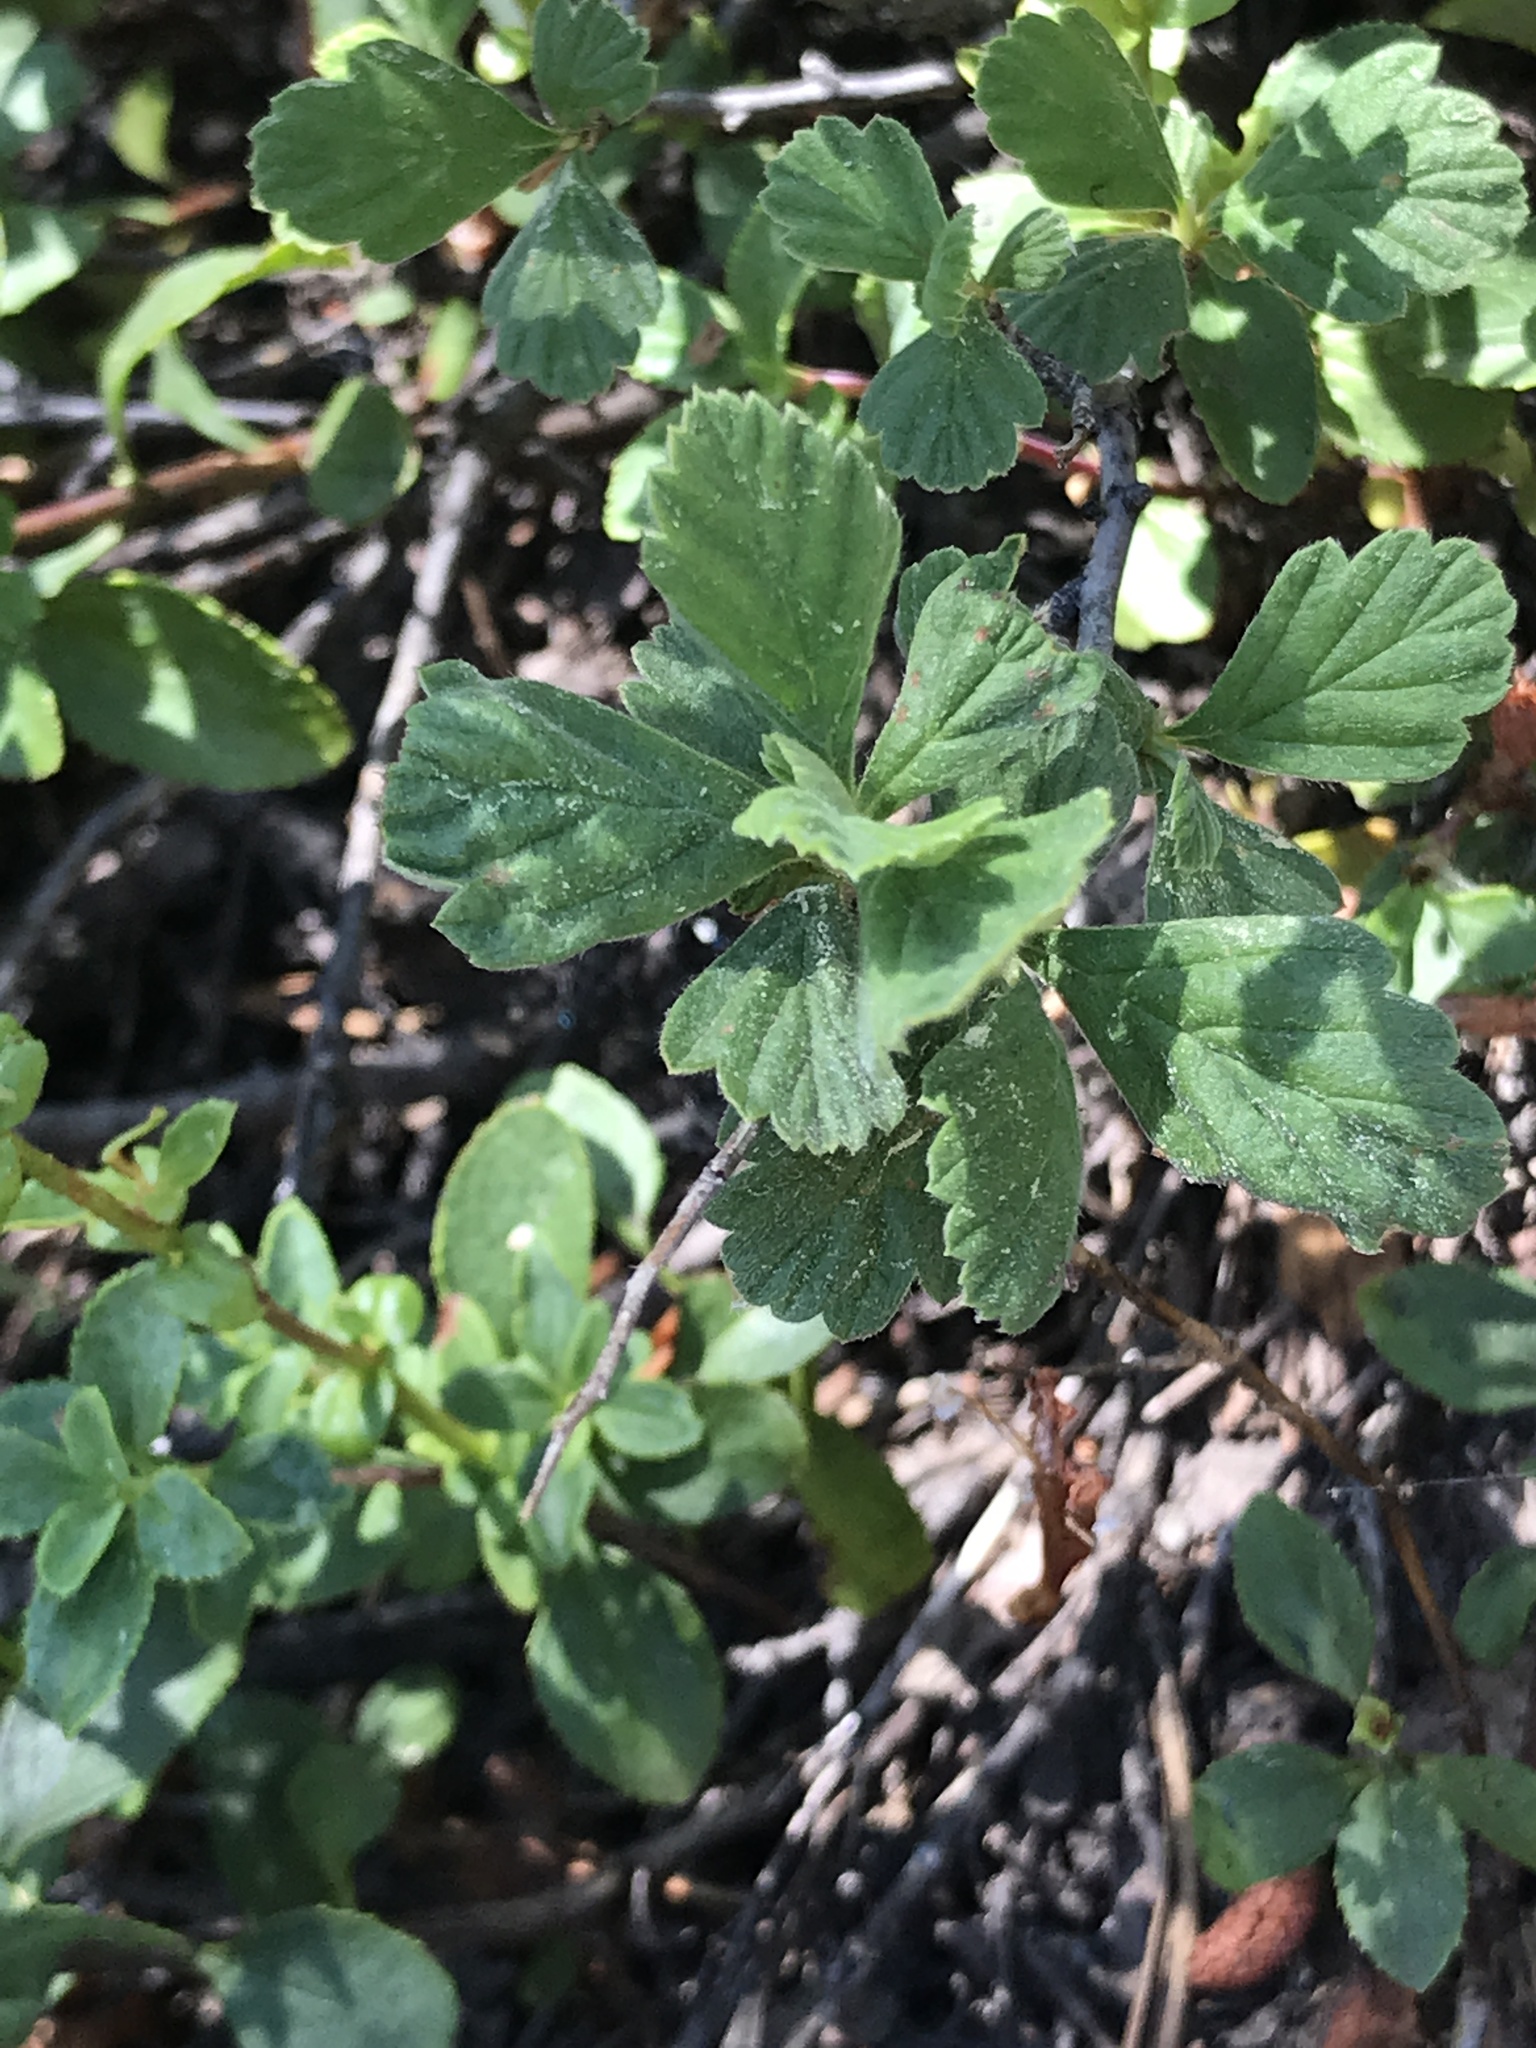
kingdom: Plantae
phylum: Tracheophyta
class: Magnoliopsida
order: Lamiales
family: Plantaginaceae
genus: Penstemon
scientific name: Penstemon newberryi
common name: Mountain-pride
